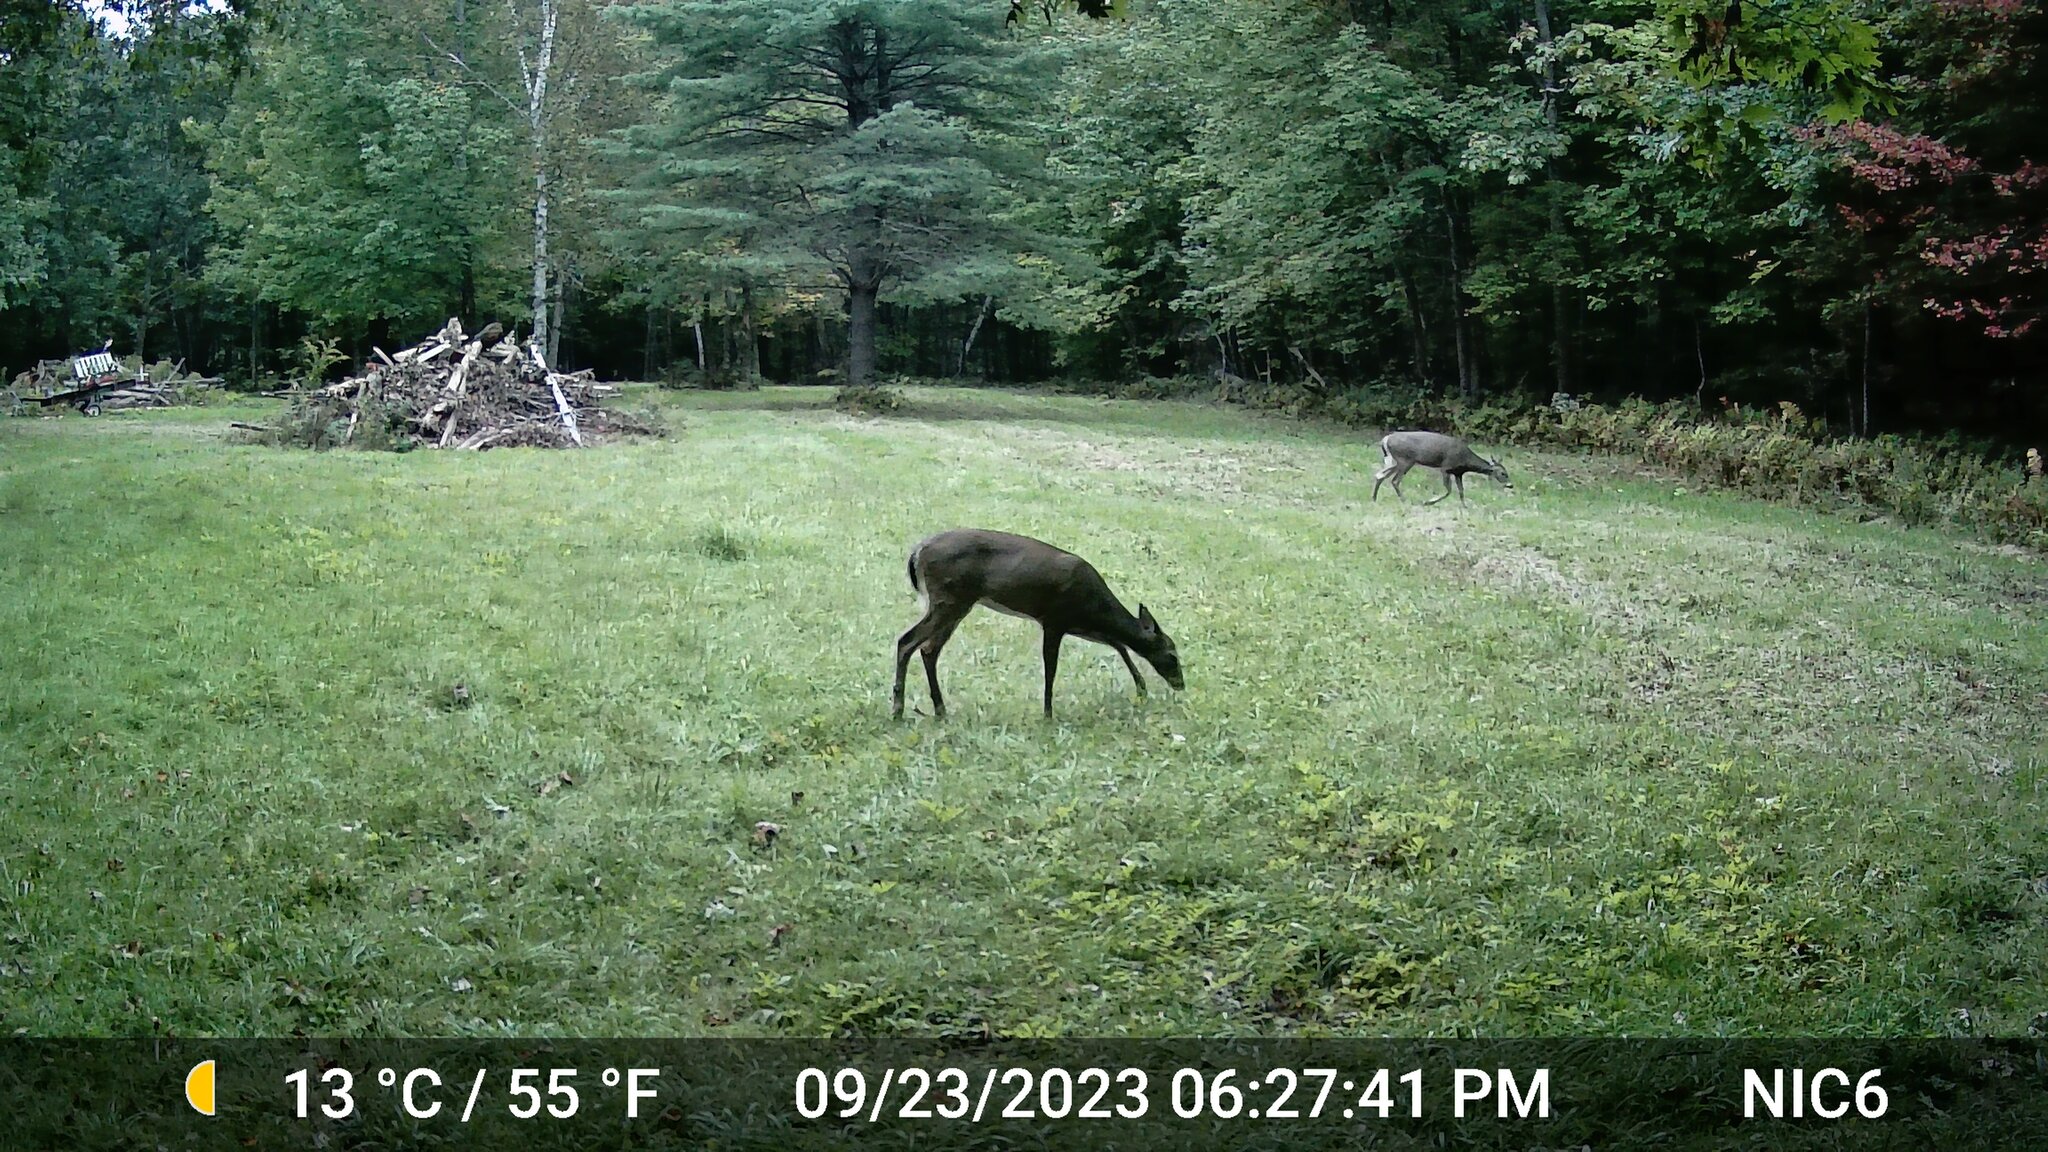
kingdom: Animalia
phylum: Chordata
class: Mammalia
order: Artiodactyla
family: Cervidae
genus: Odocoileus
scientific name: Odocoileus virginianus
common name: White-tailed deer
